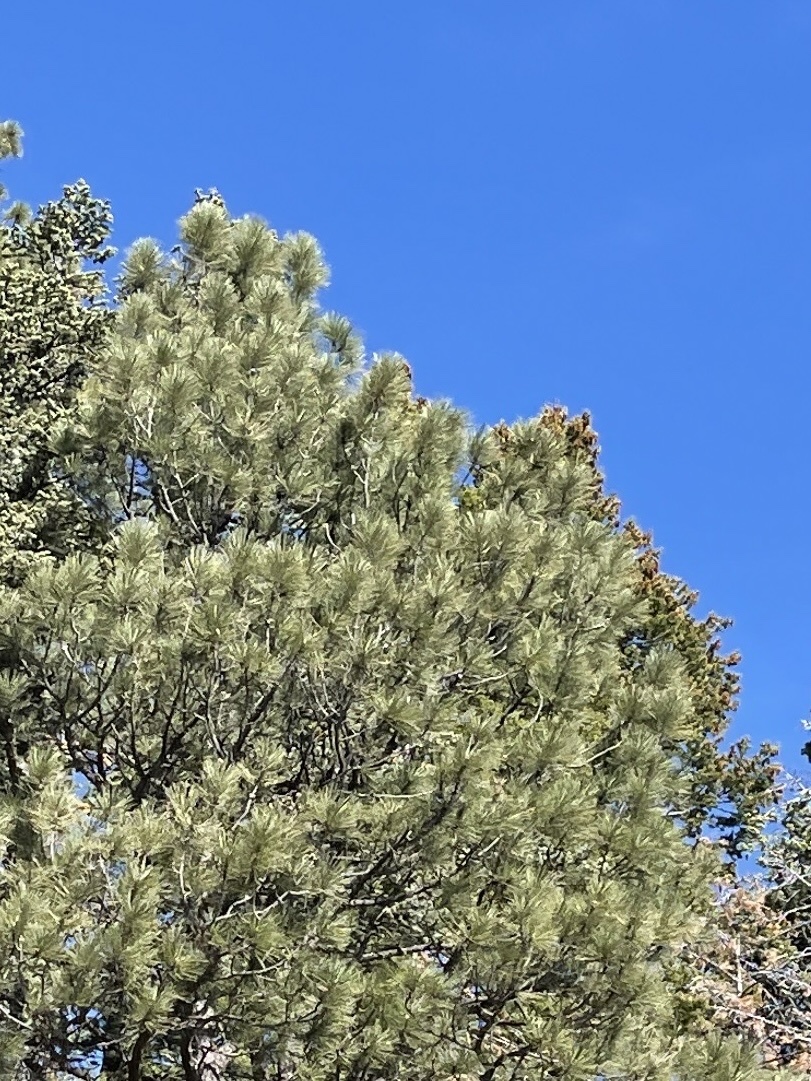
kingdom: Plantae
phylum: Tracheophyta
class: Pinopsida
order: Pinales
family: Pinaceae
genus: Pinus
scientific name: Pinus ponderosa
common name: Western yellow-pine
